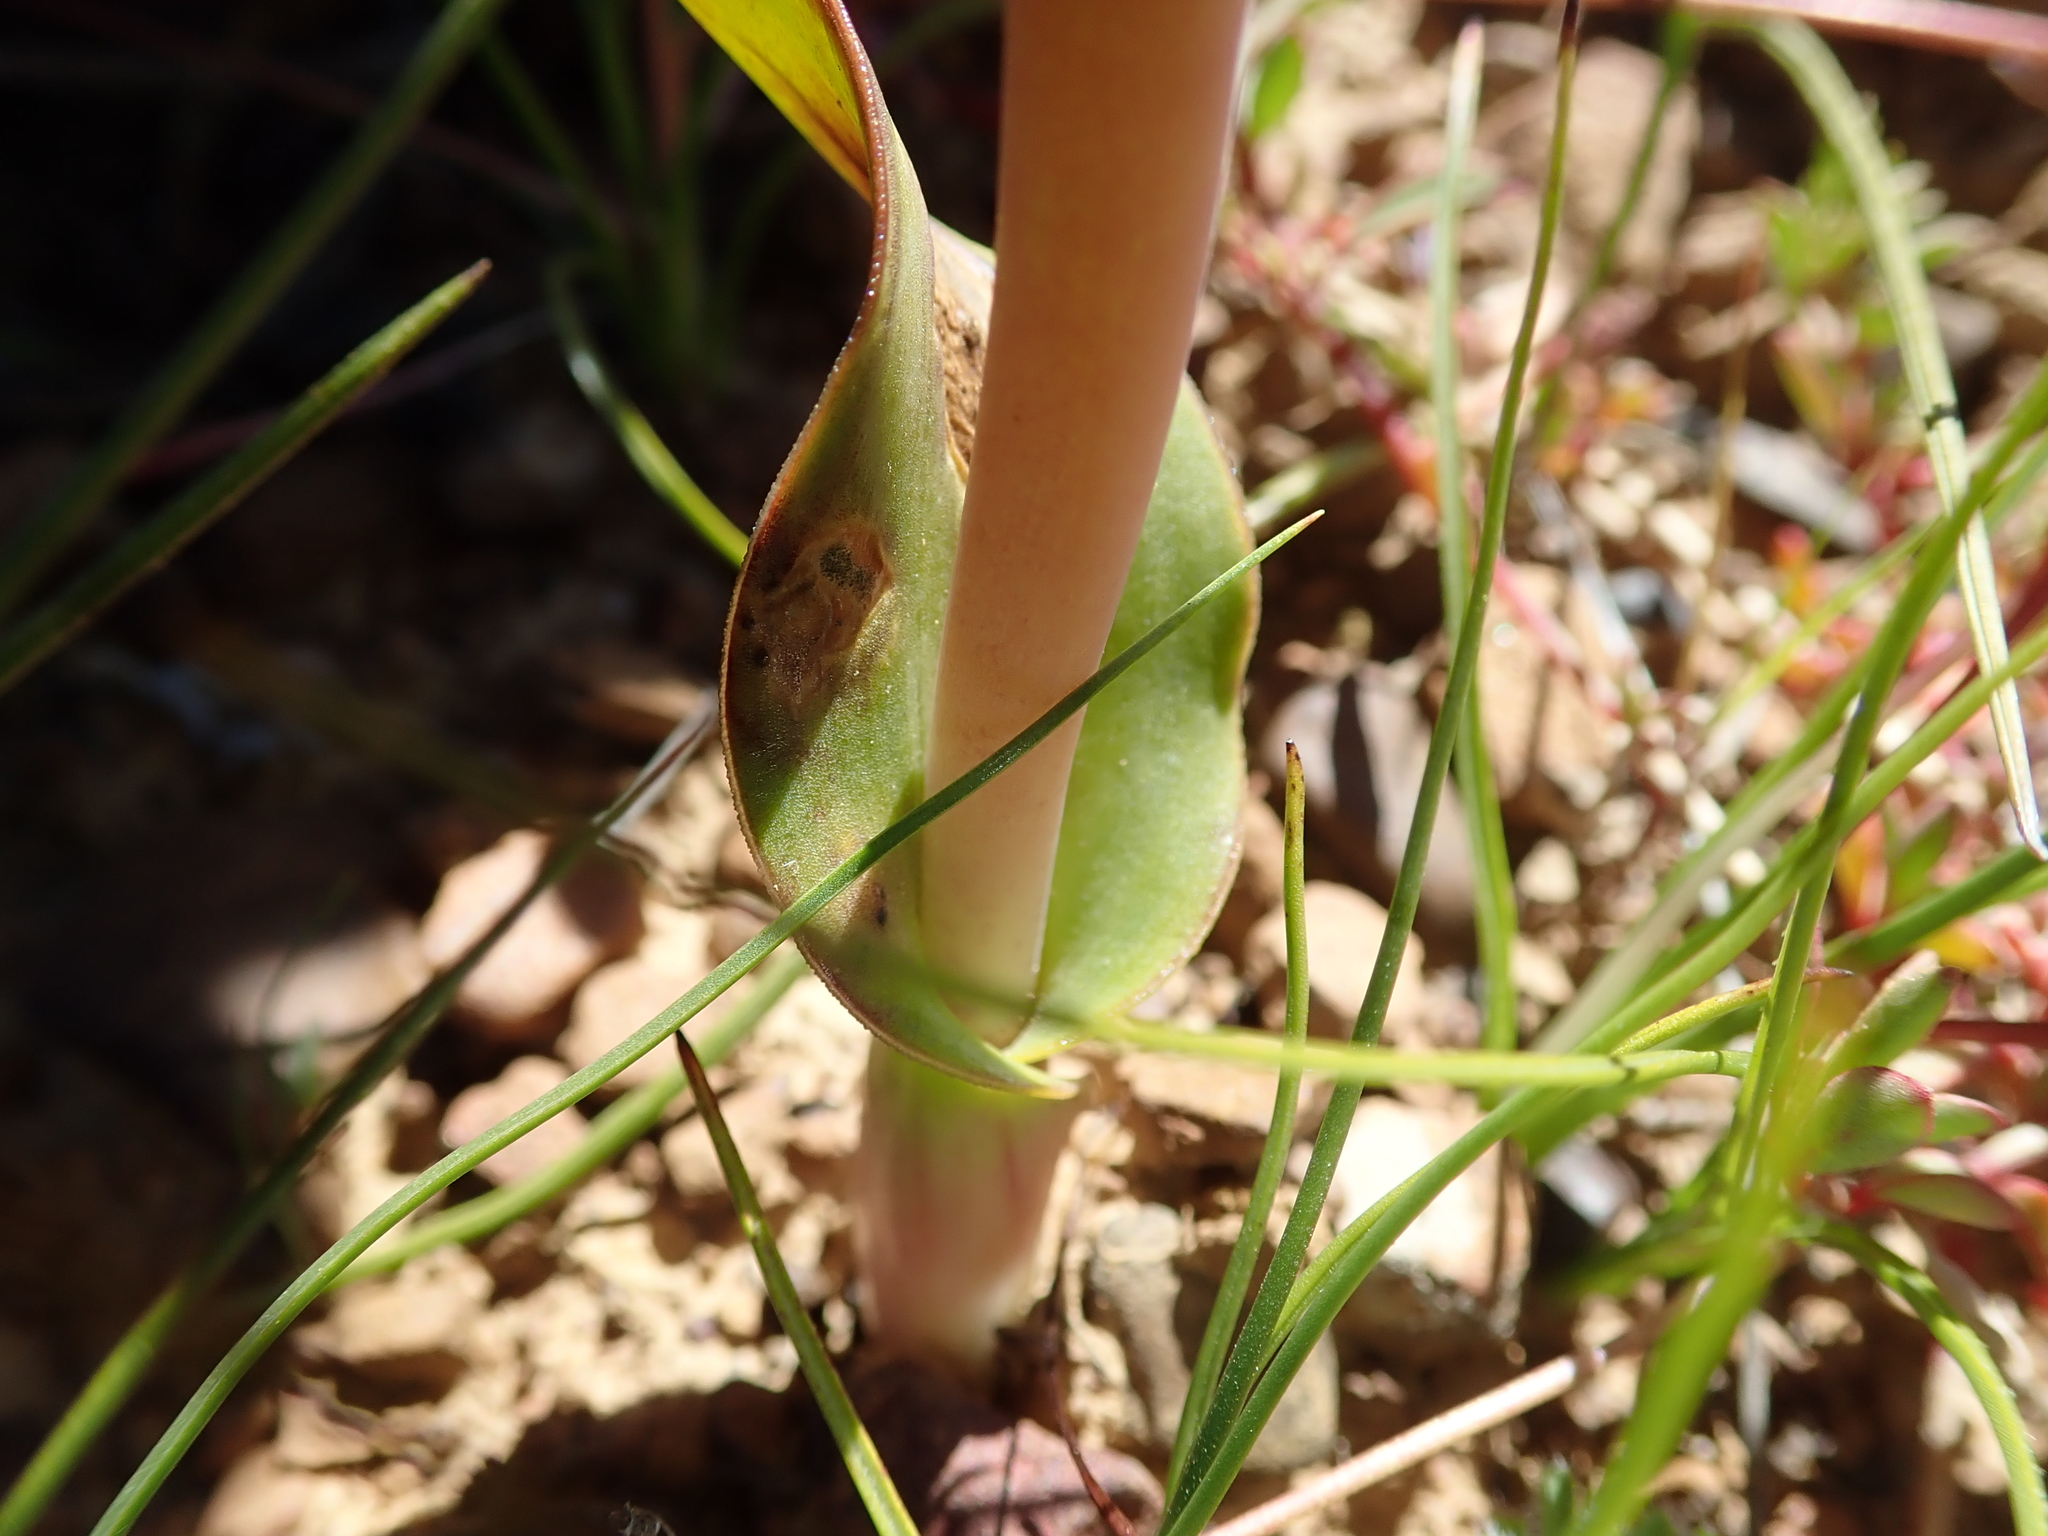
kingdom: Plantae
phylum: Tracheophyta
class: Liliopsida
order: Asparagales
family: Asparagaceae
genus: Lachenalia
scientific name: Lachenalia elegans
